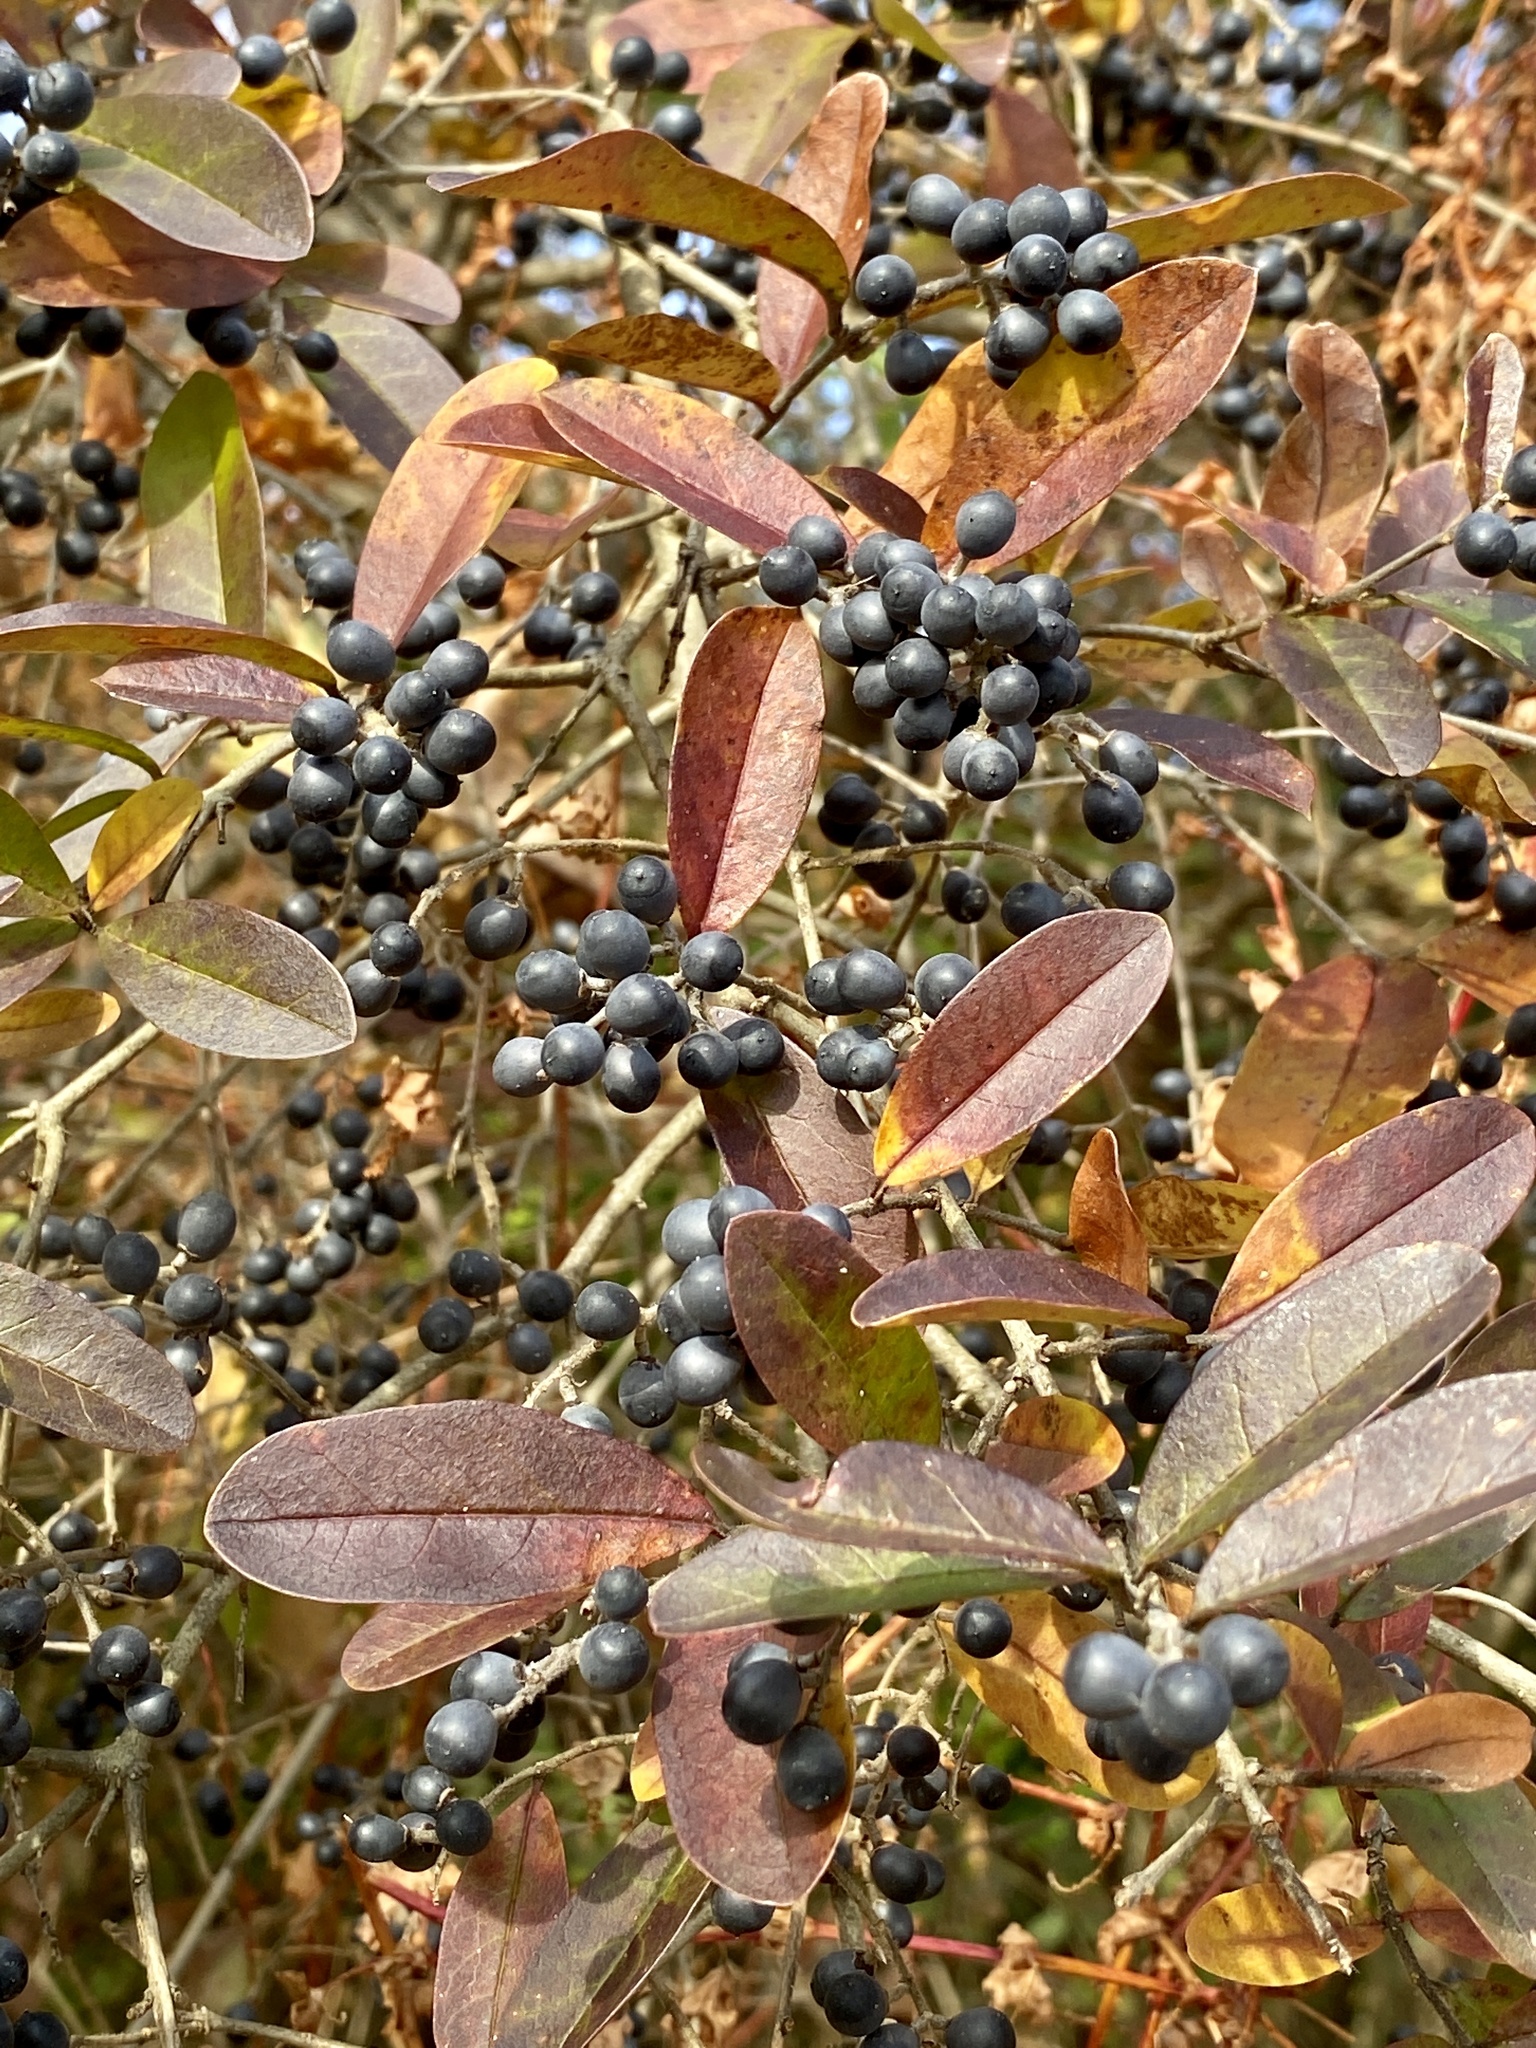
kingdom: Plantae
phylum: Tracheophyta
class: Magnoliopsida
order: Lamiales
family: Oleaceae
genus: Ligustrum
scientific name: Ligustrum obtusifolium
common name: Border privet
